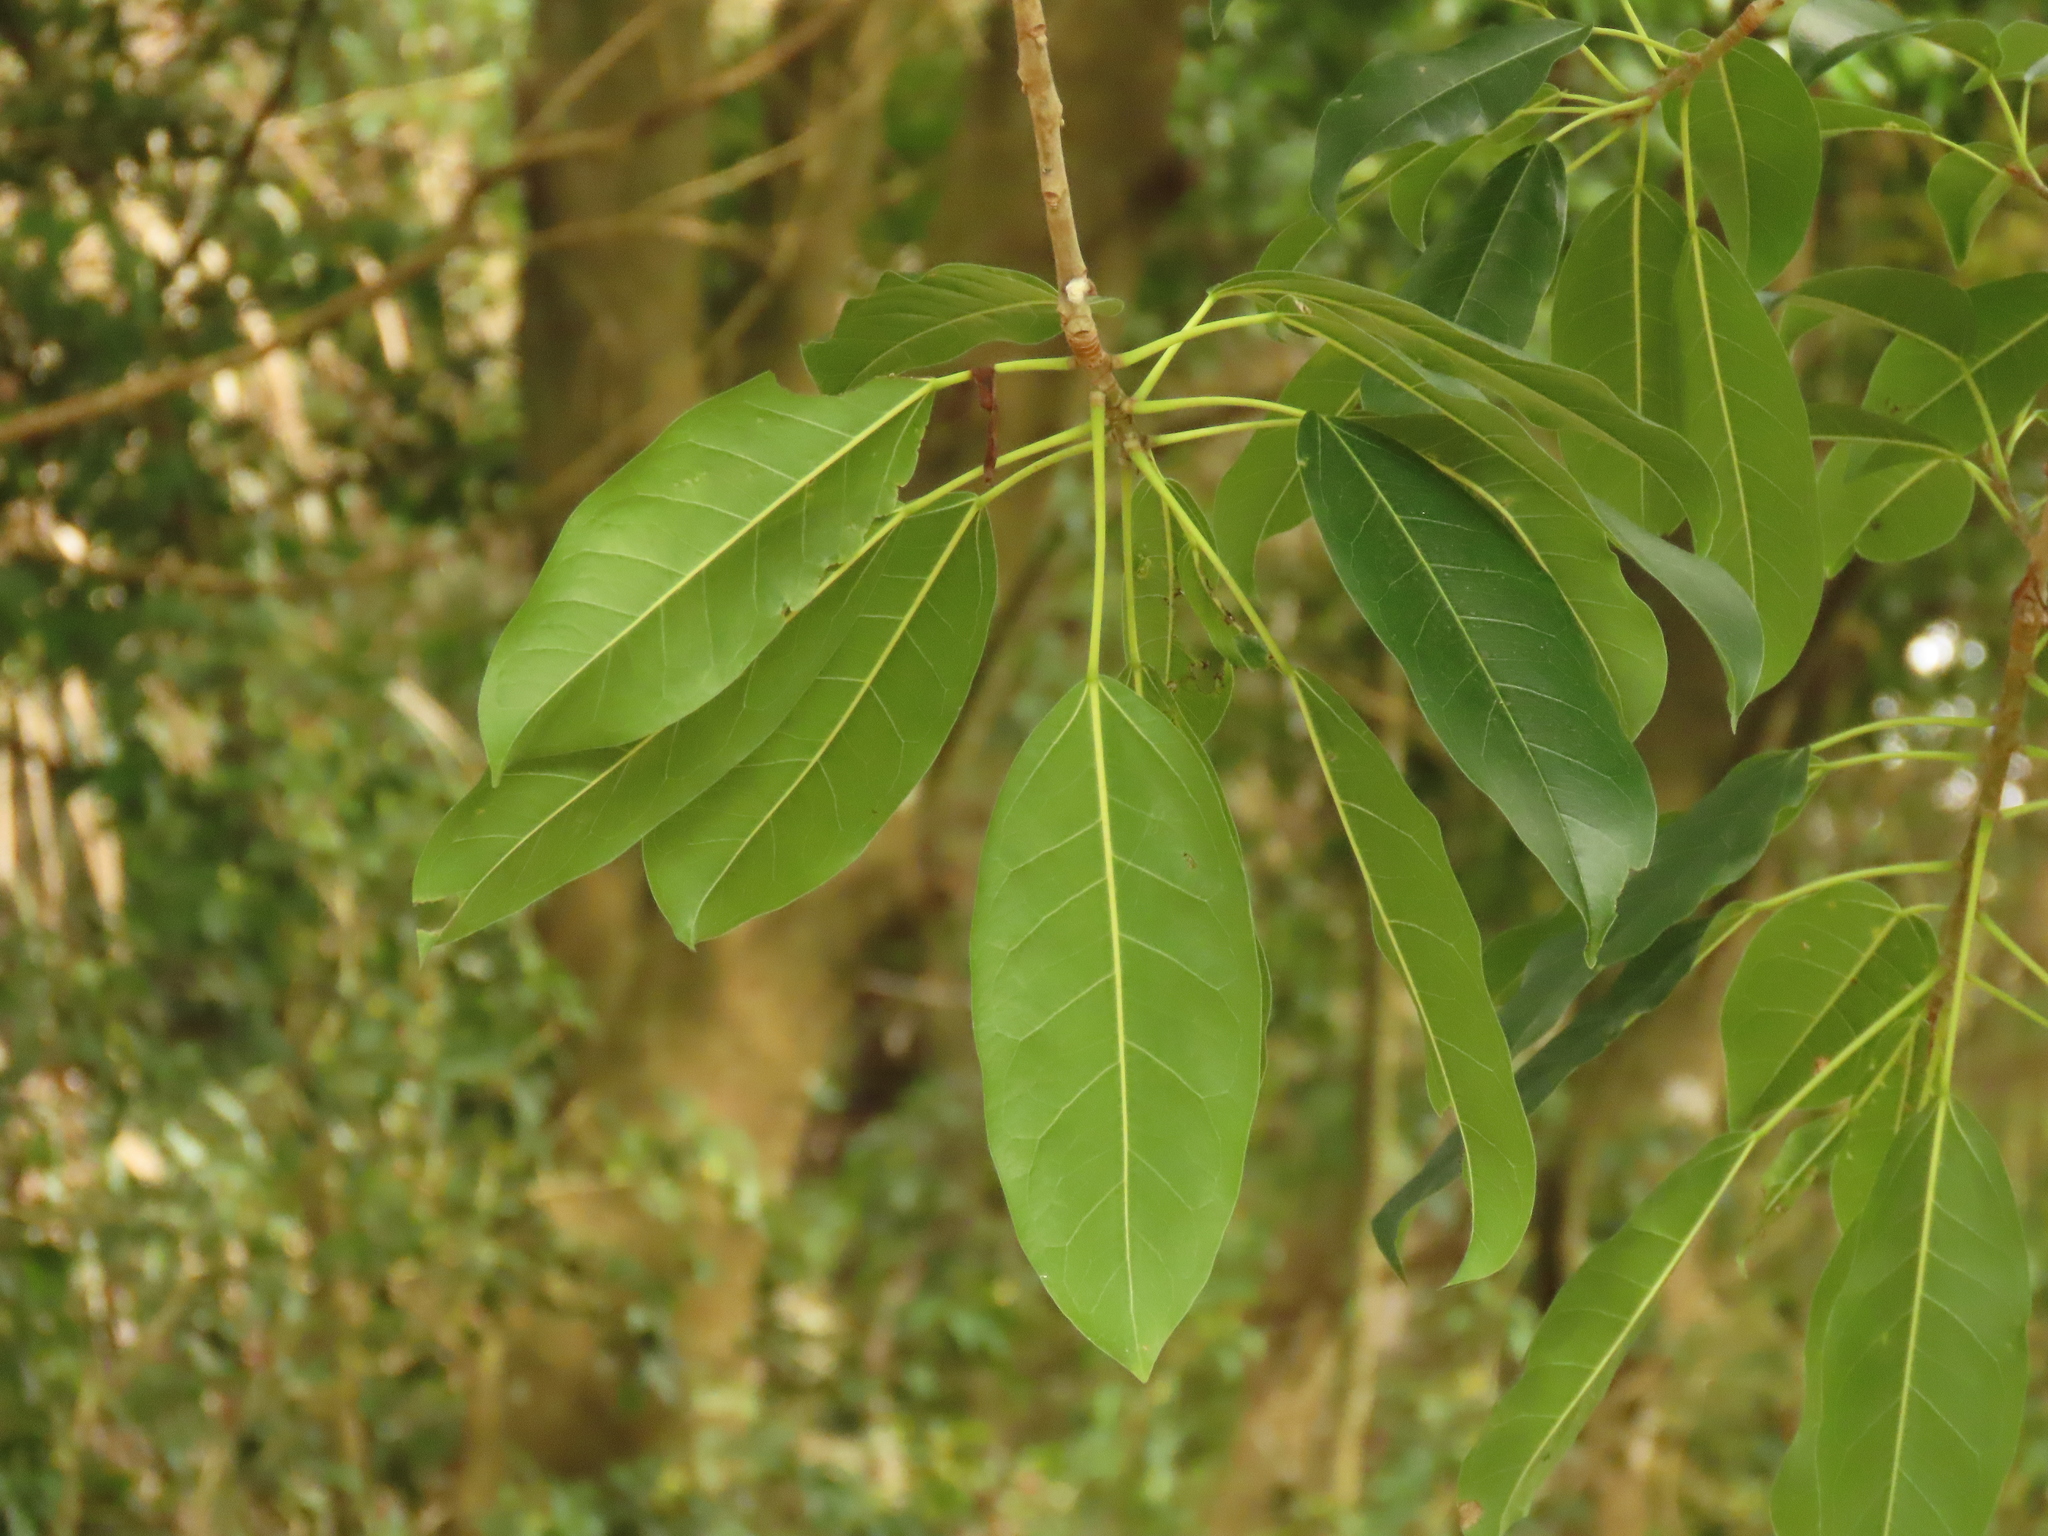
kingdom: Plantae
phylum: Tracheophyta
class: Magnoliopsida
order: Rosales
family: Moraceae
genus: Ficus
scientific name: Ficus subpisocarpa
